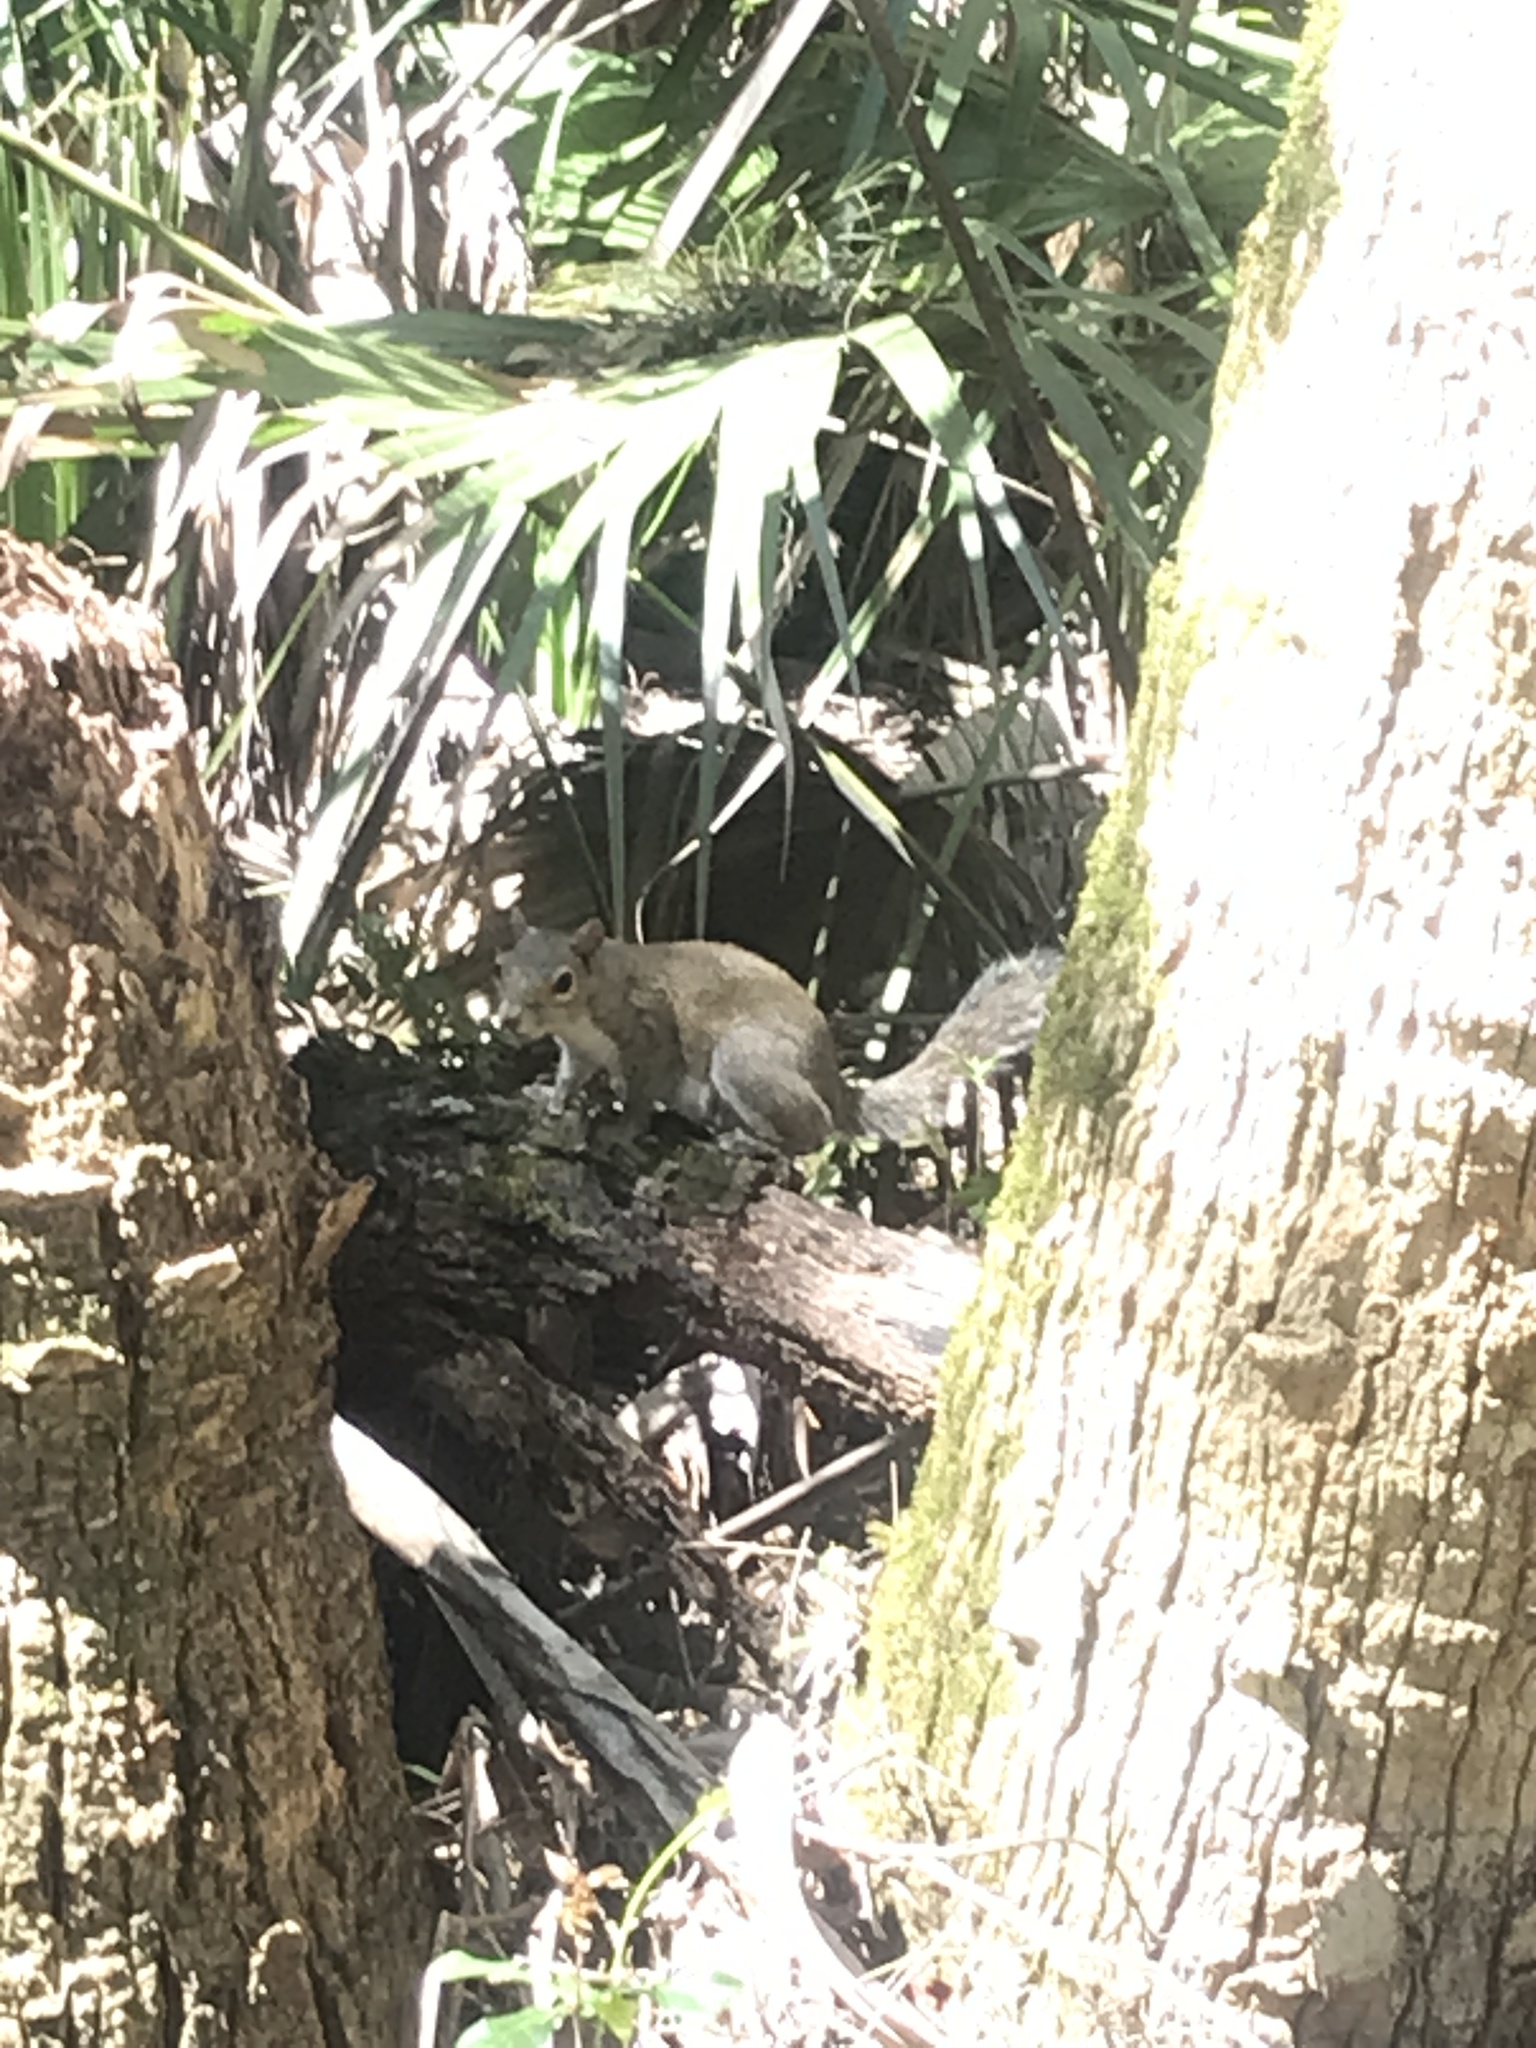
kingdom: Animalia
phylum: Chordata
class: Mammalia
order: Rodentia
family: Sciuridae
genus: Sciurus
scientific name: Sciurus carolinensis
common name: Eastern gray squirrel
